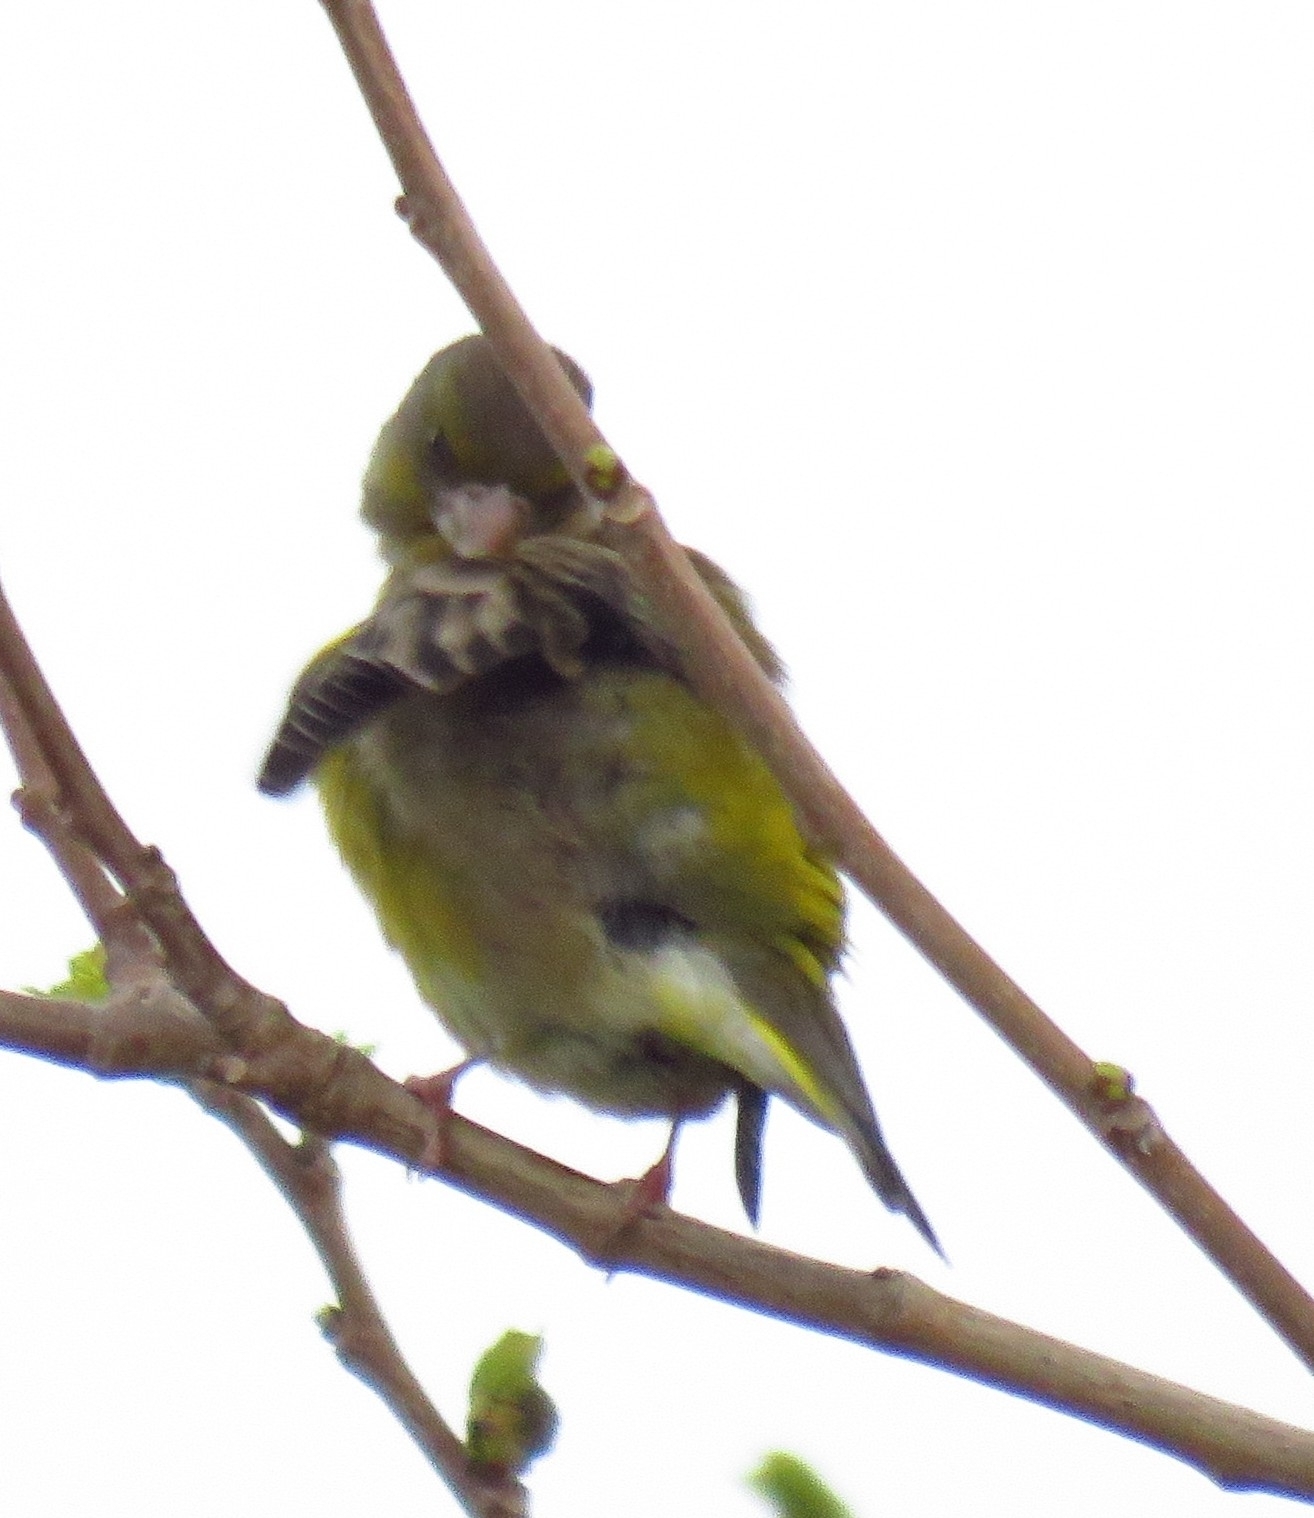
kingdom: Plantae
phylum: Tracheophyta
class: Liliopsida
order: Poales
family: Poaceae
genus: Chloris
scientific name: Chloris chloris
